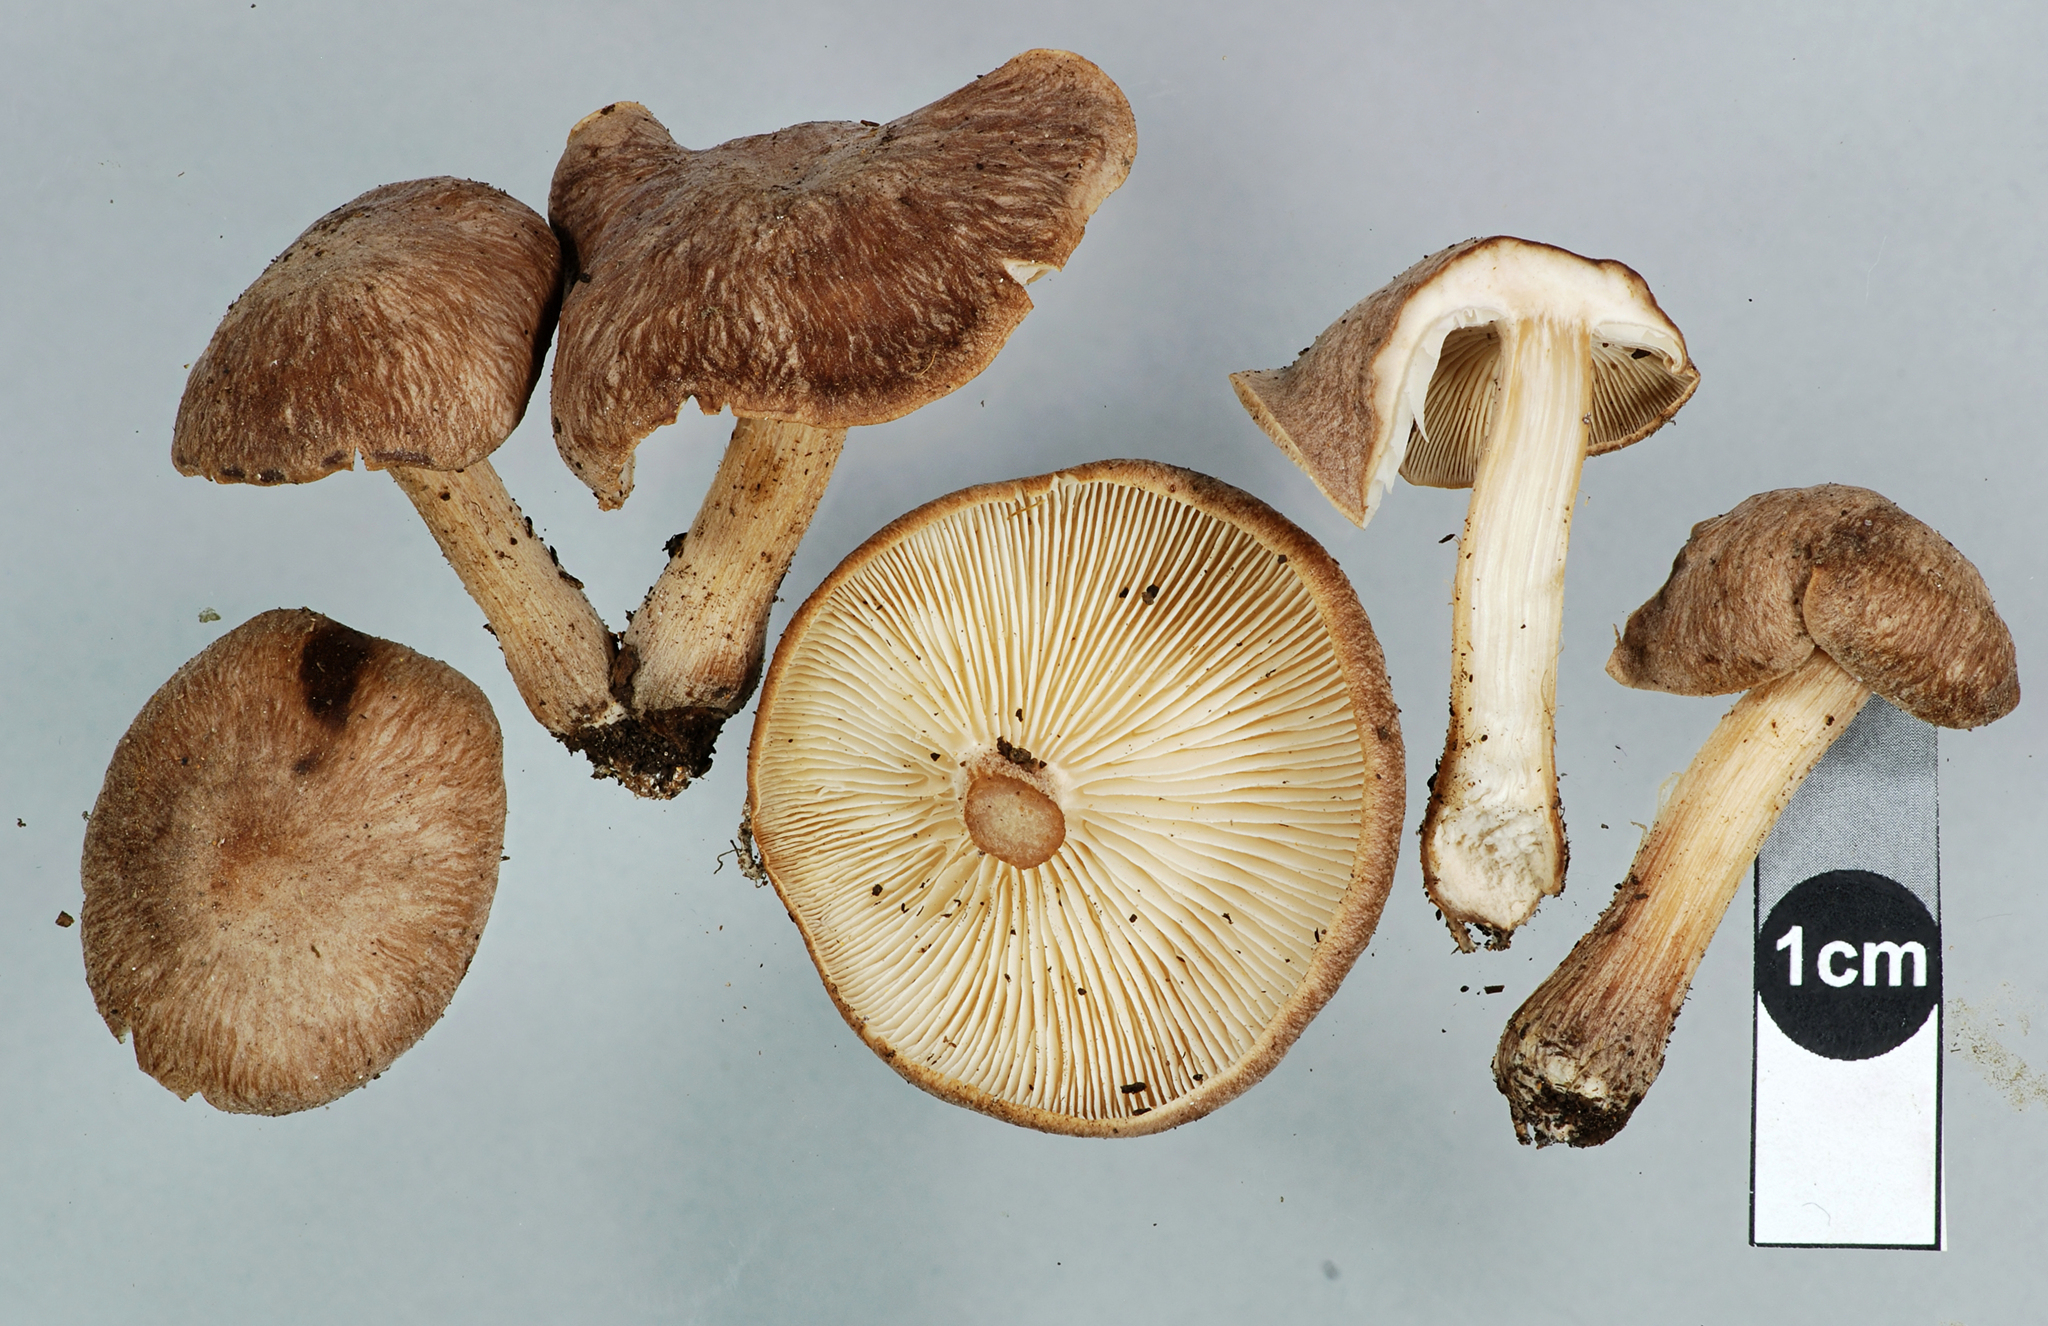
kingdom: Fungi
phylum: Basidiomycota
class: Agaricomycetes
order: Agaricales
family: Omphalotaceae
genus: Collybiopsis
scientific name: Collybiopsis luxurians
